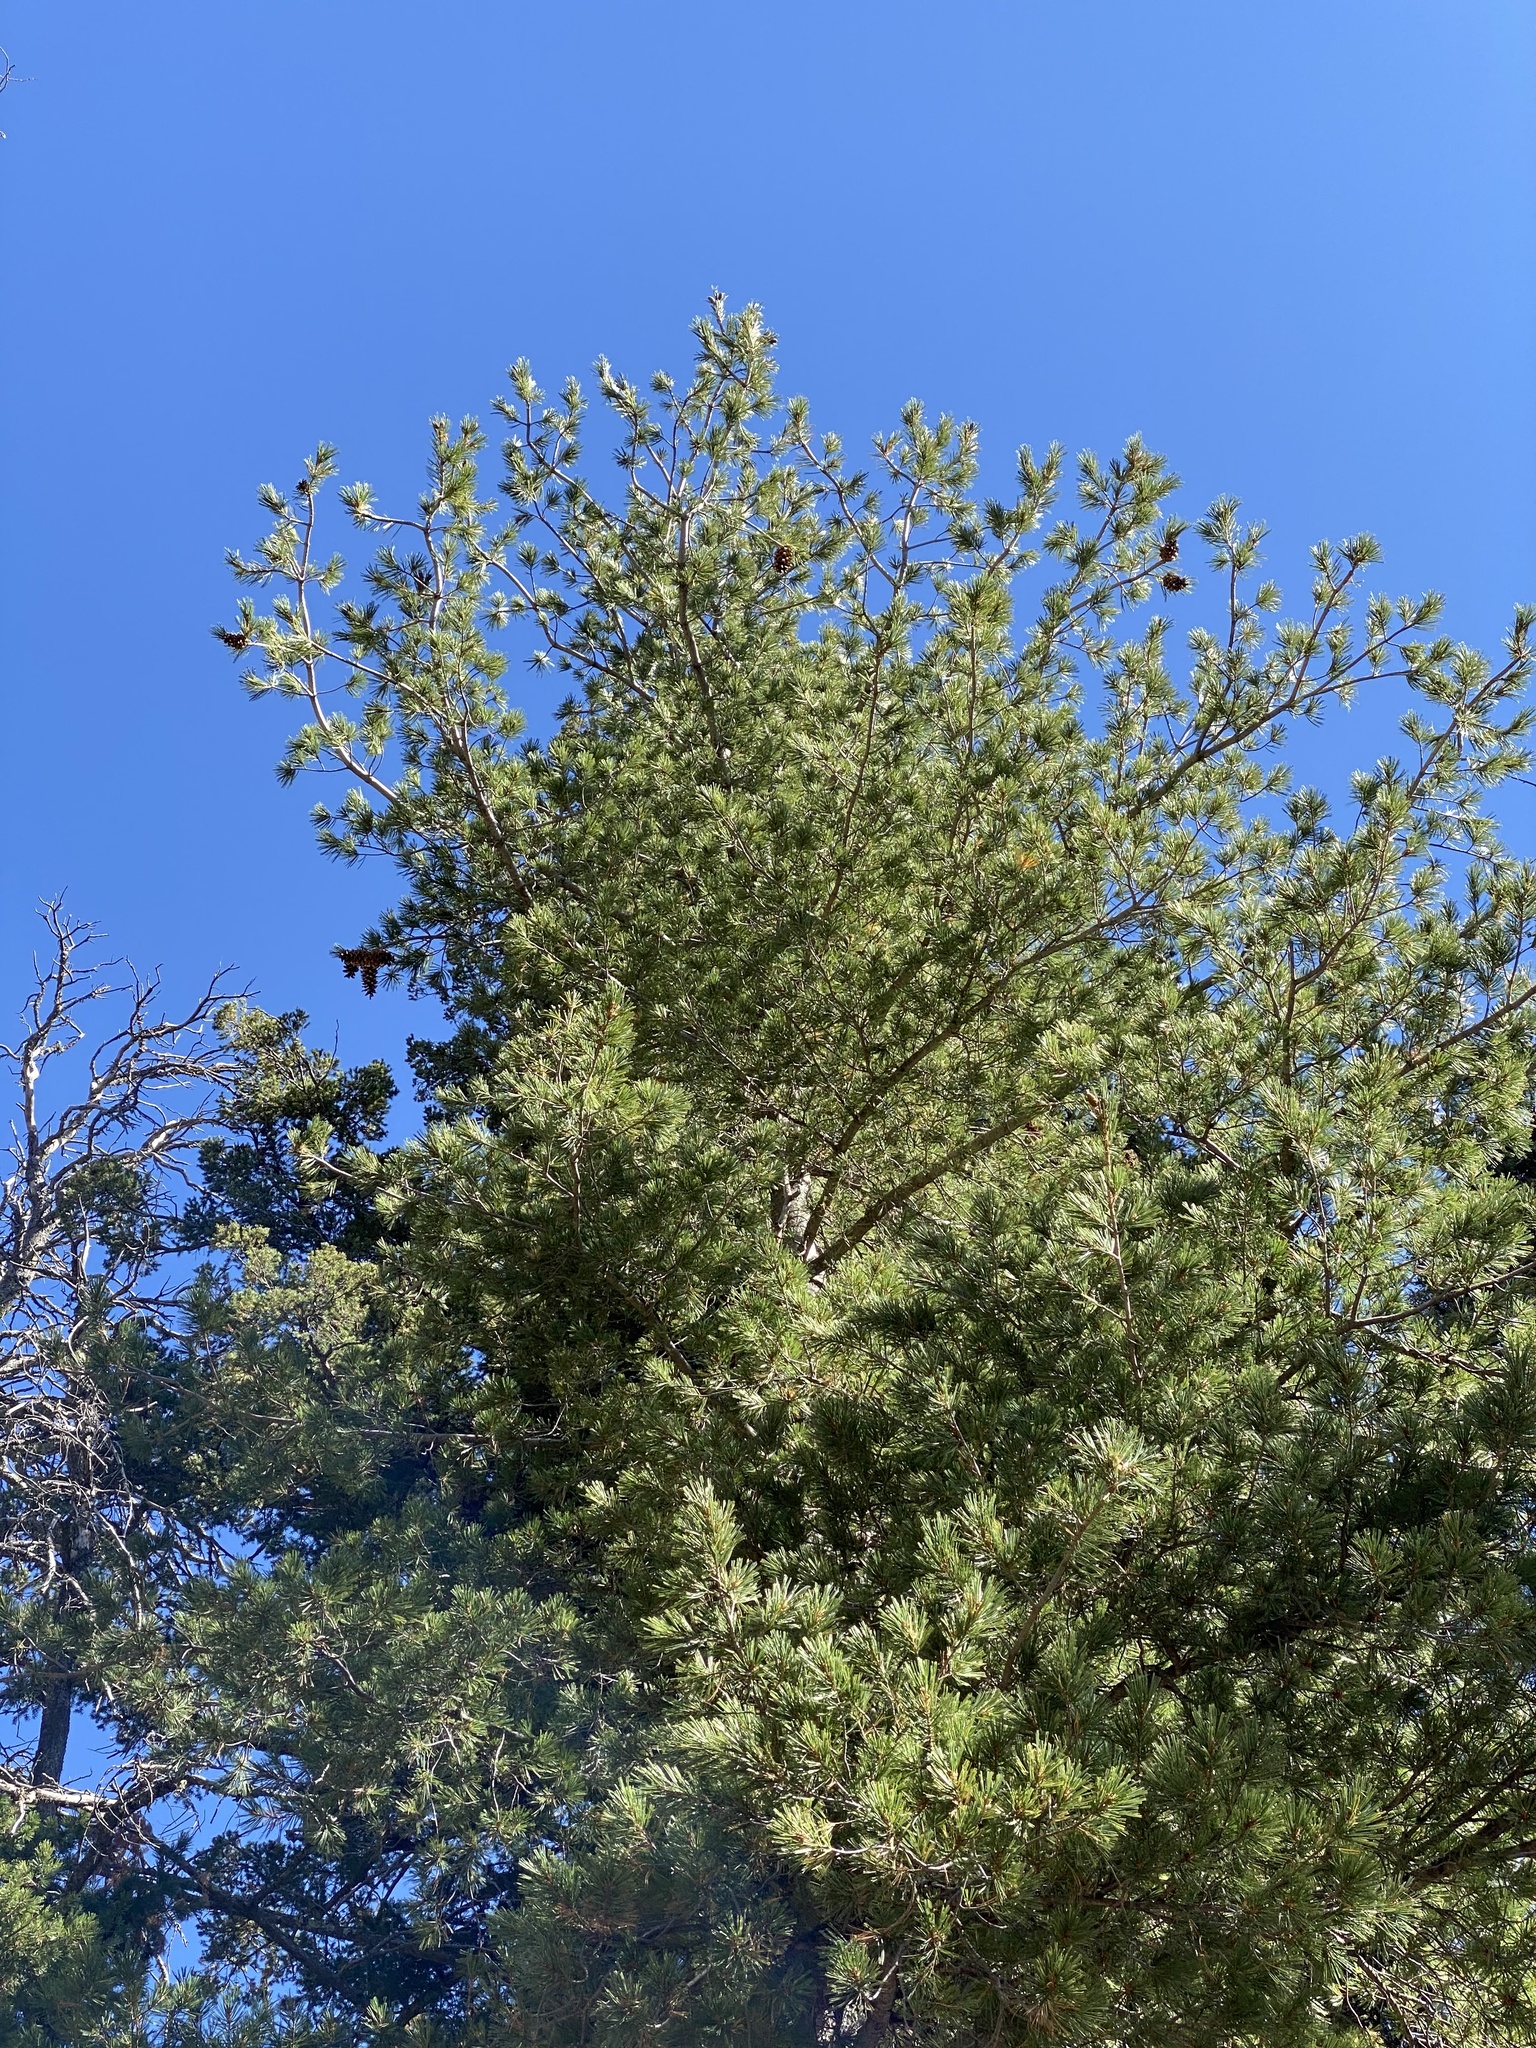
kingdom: Plantae
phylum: Tracheophyta
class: Pinopsida
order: Pinales
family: Pinaceae
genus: Pinus
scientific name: Pinus strobiformis
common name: Southwestern white pine
